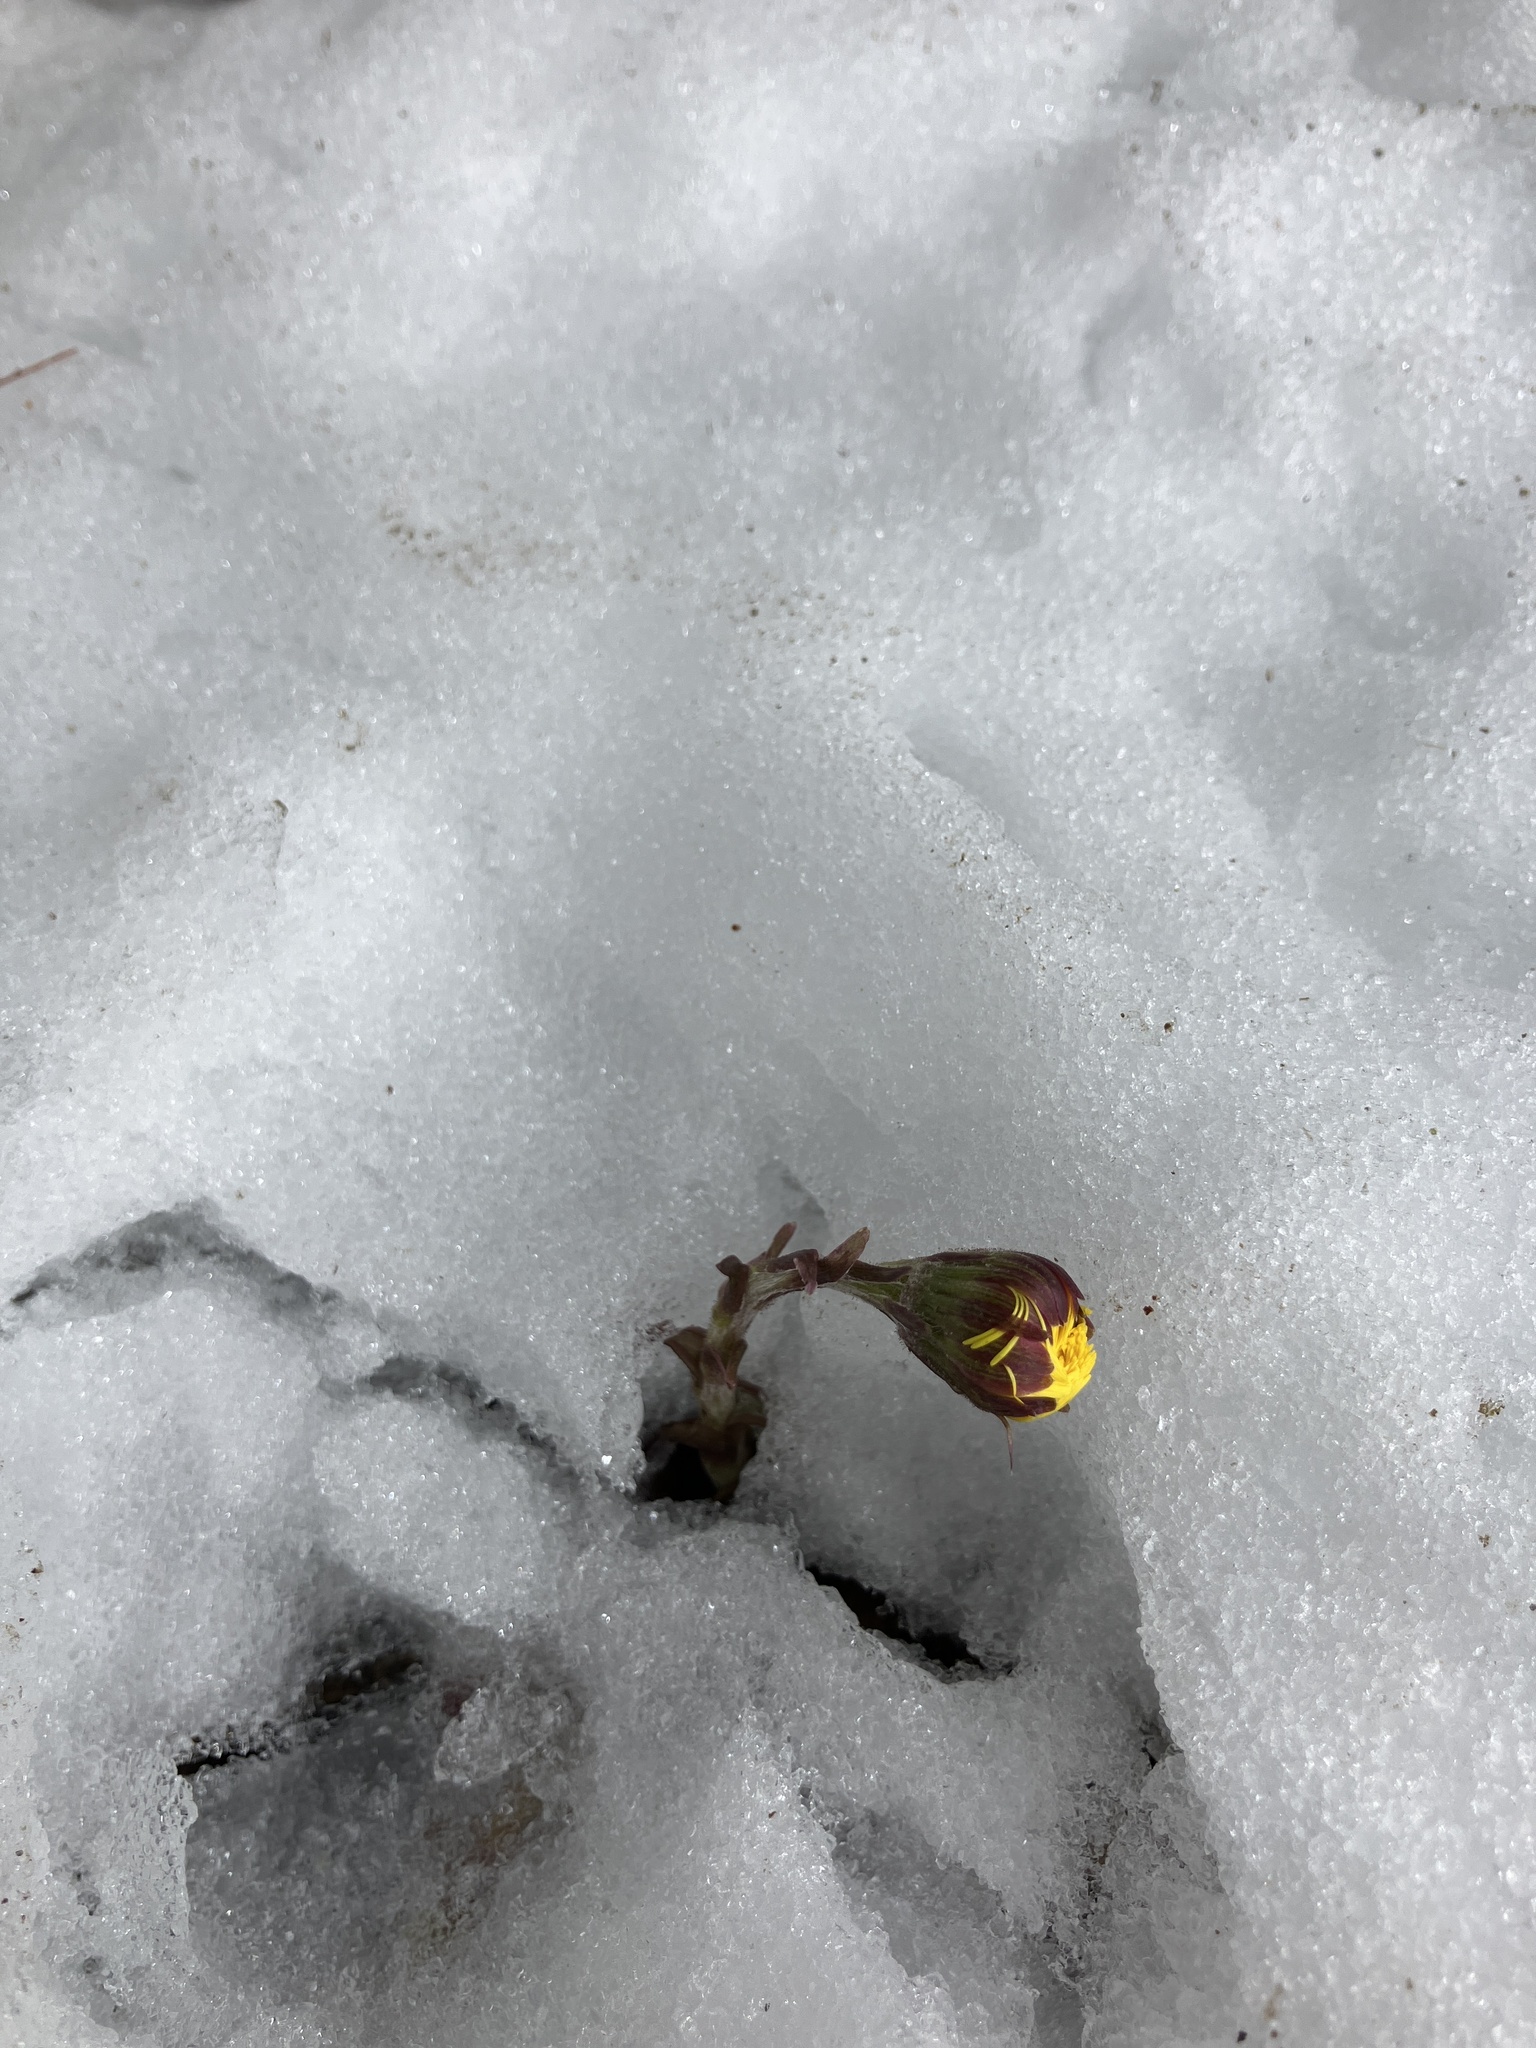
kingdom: Plantae
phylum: Tracheophyta
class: Magnoliopsida
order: Asterales
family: Asteraceae
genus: Tussilago
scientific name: Tussilago farfara
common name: Coltsfoot
